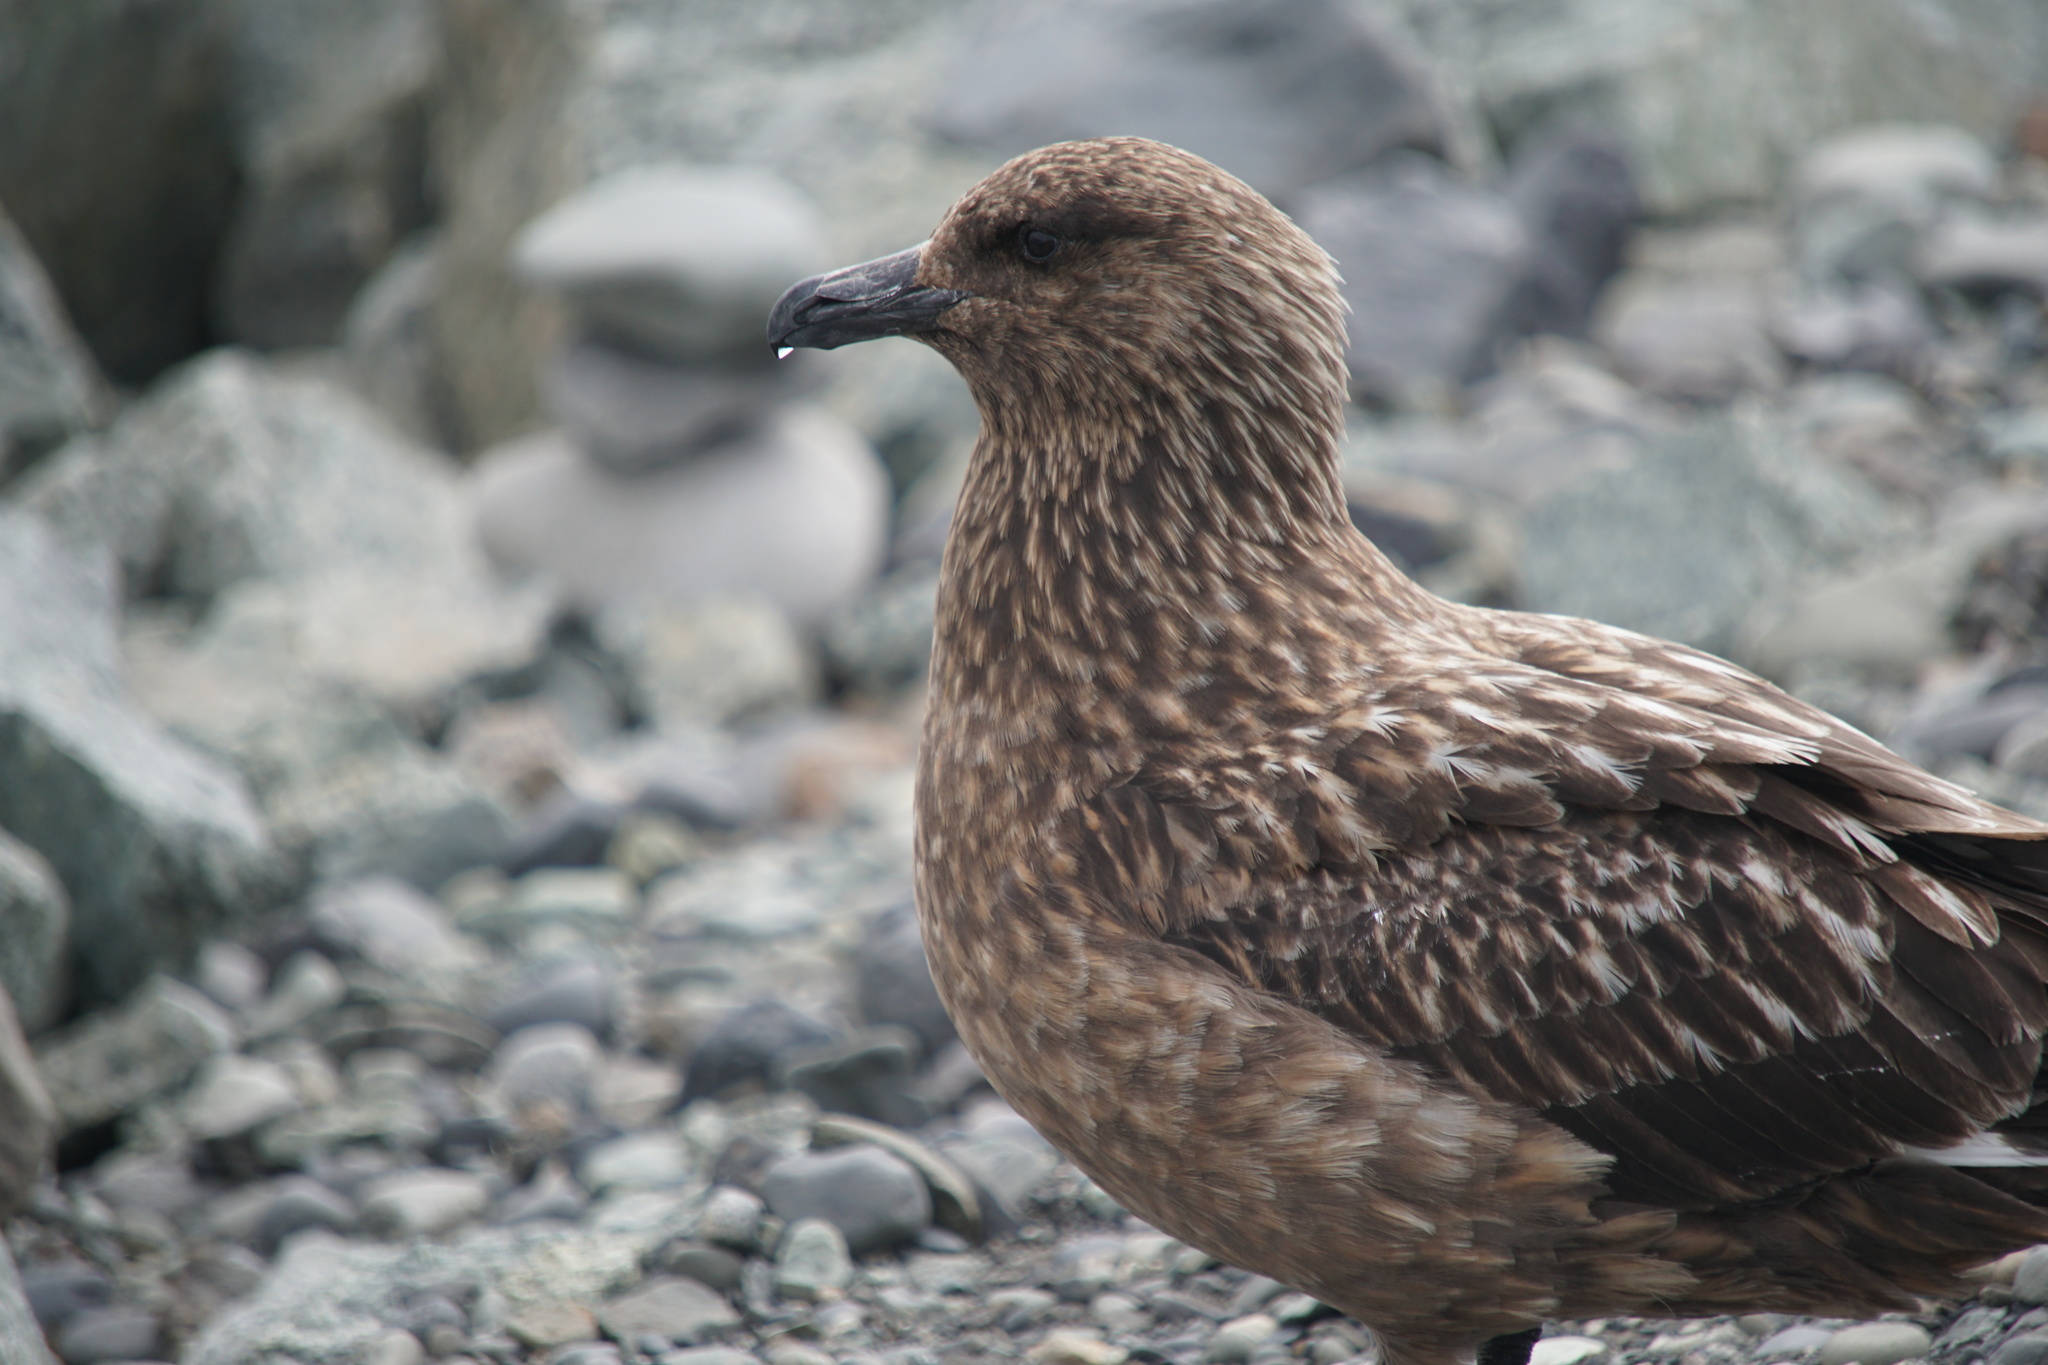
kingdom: Animalia
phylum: Chordata
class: Aves
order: Charadriiformes
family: Stercorariidae
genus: Stercorarius
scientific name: Stercorarius skua
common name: Great skua
